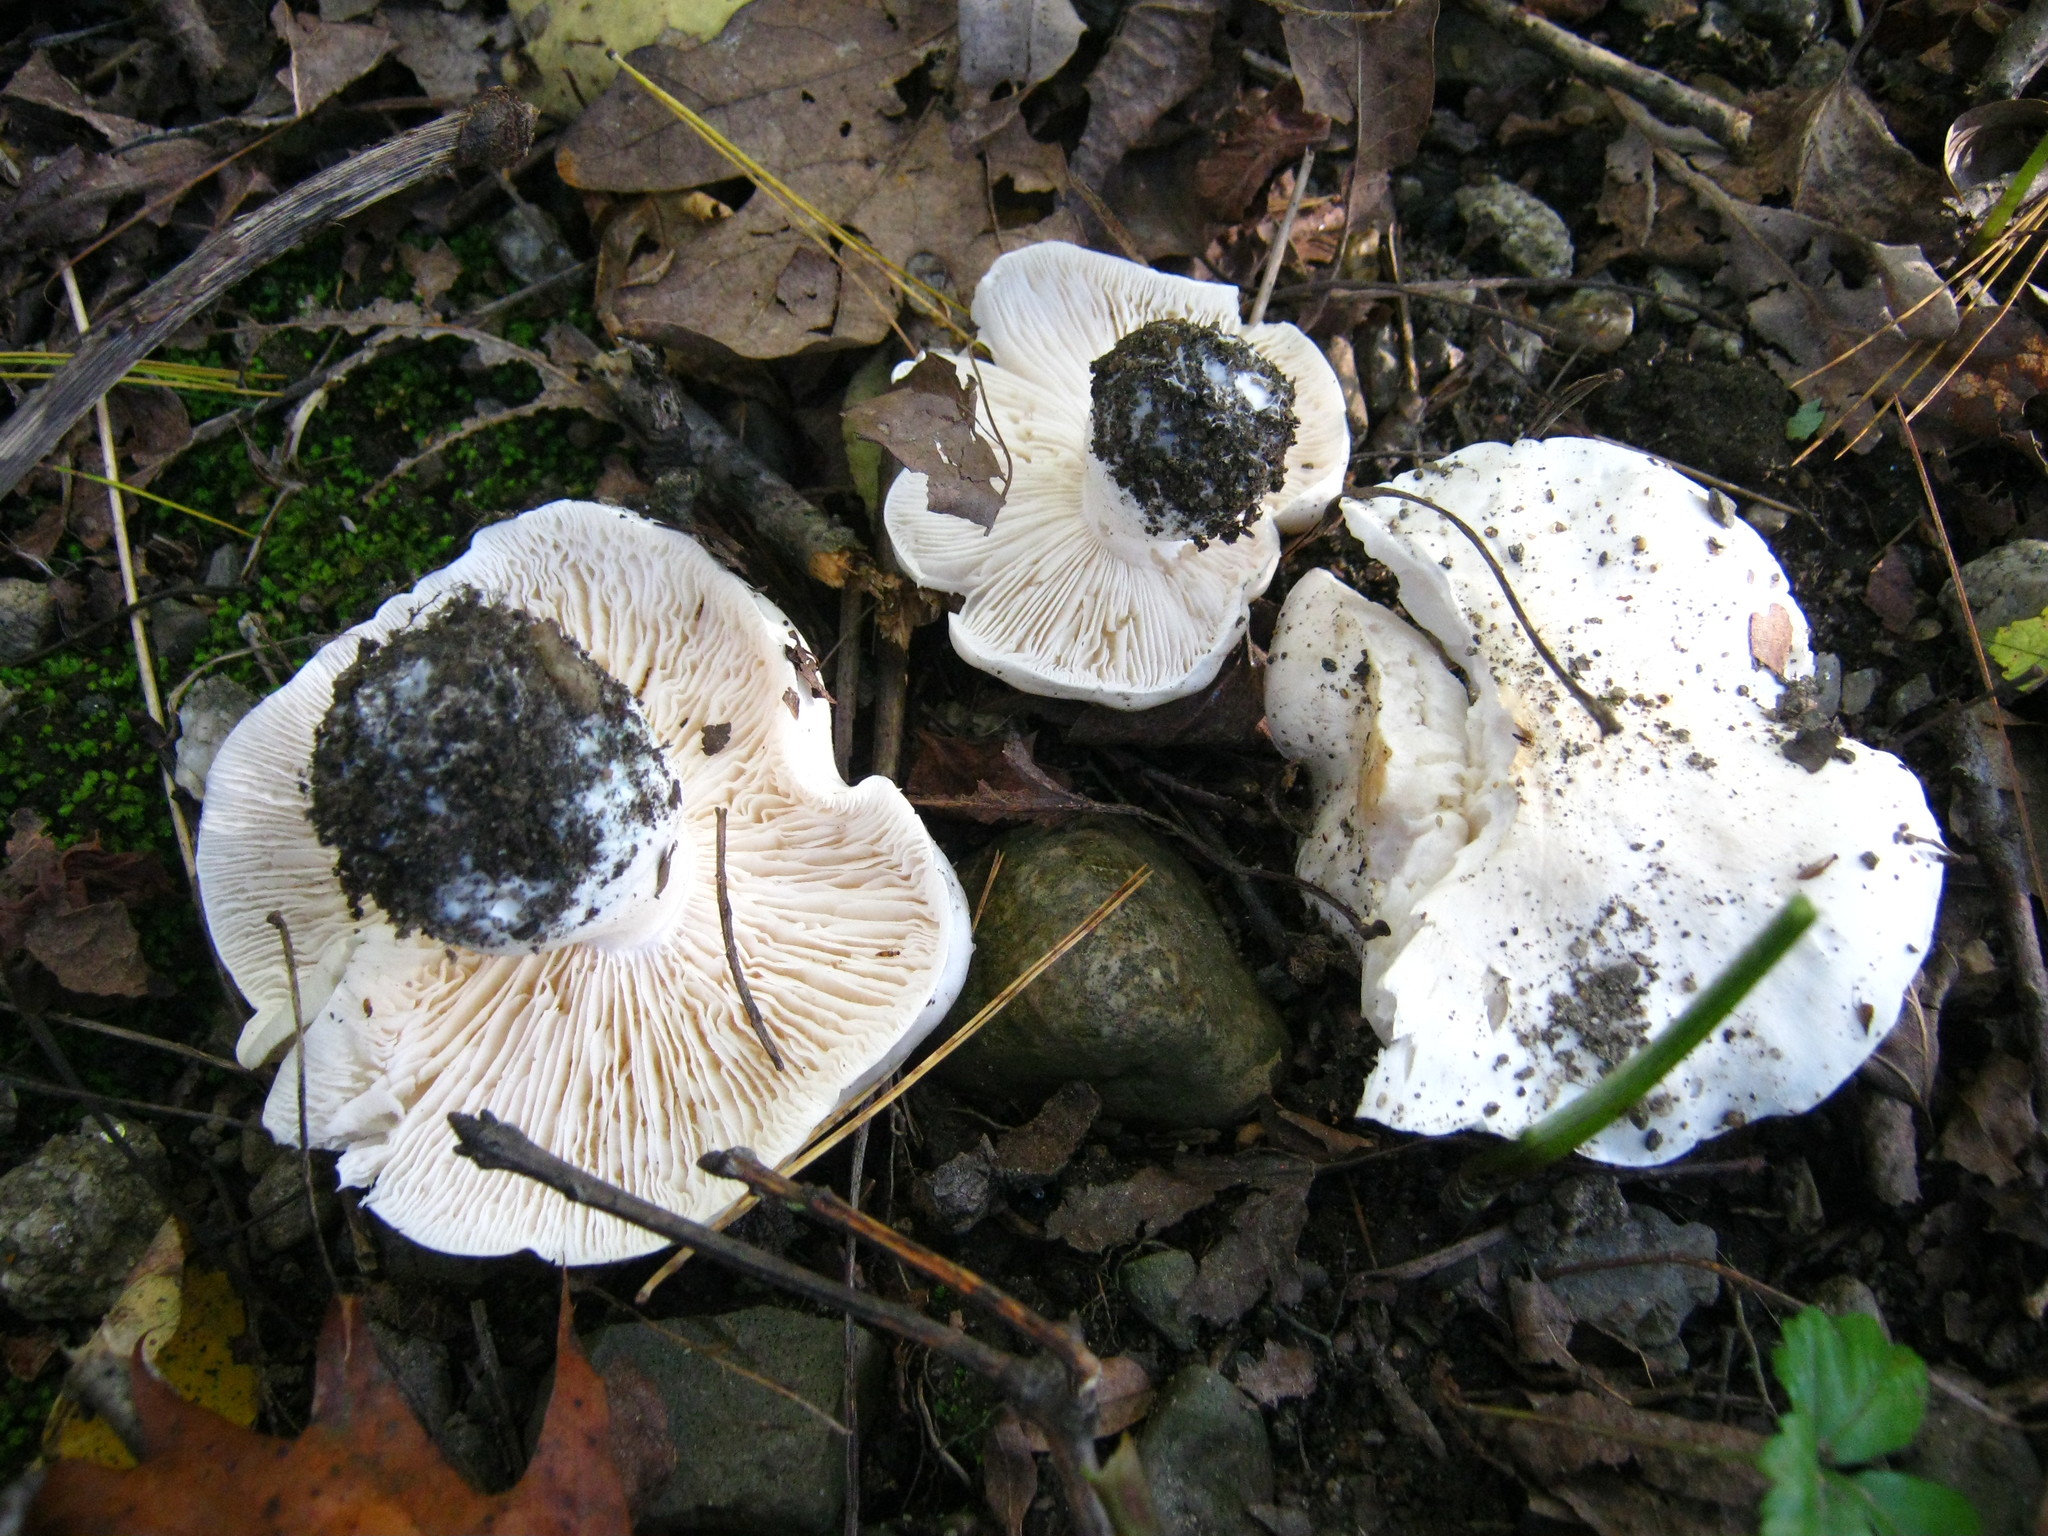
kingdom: Fungi
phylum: Basidiomycota
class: Agaricomycetes
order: Agaricales
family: Tricholomataceae
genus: Tricholoma
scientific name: Tricholoma subresplendens
